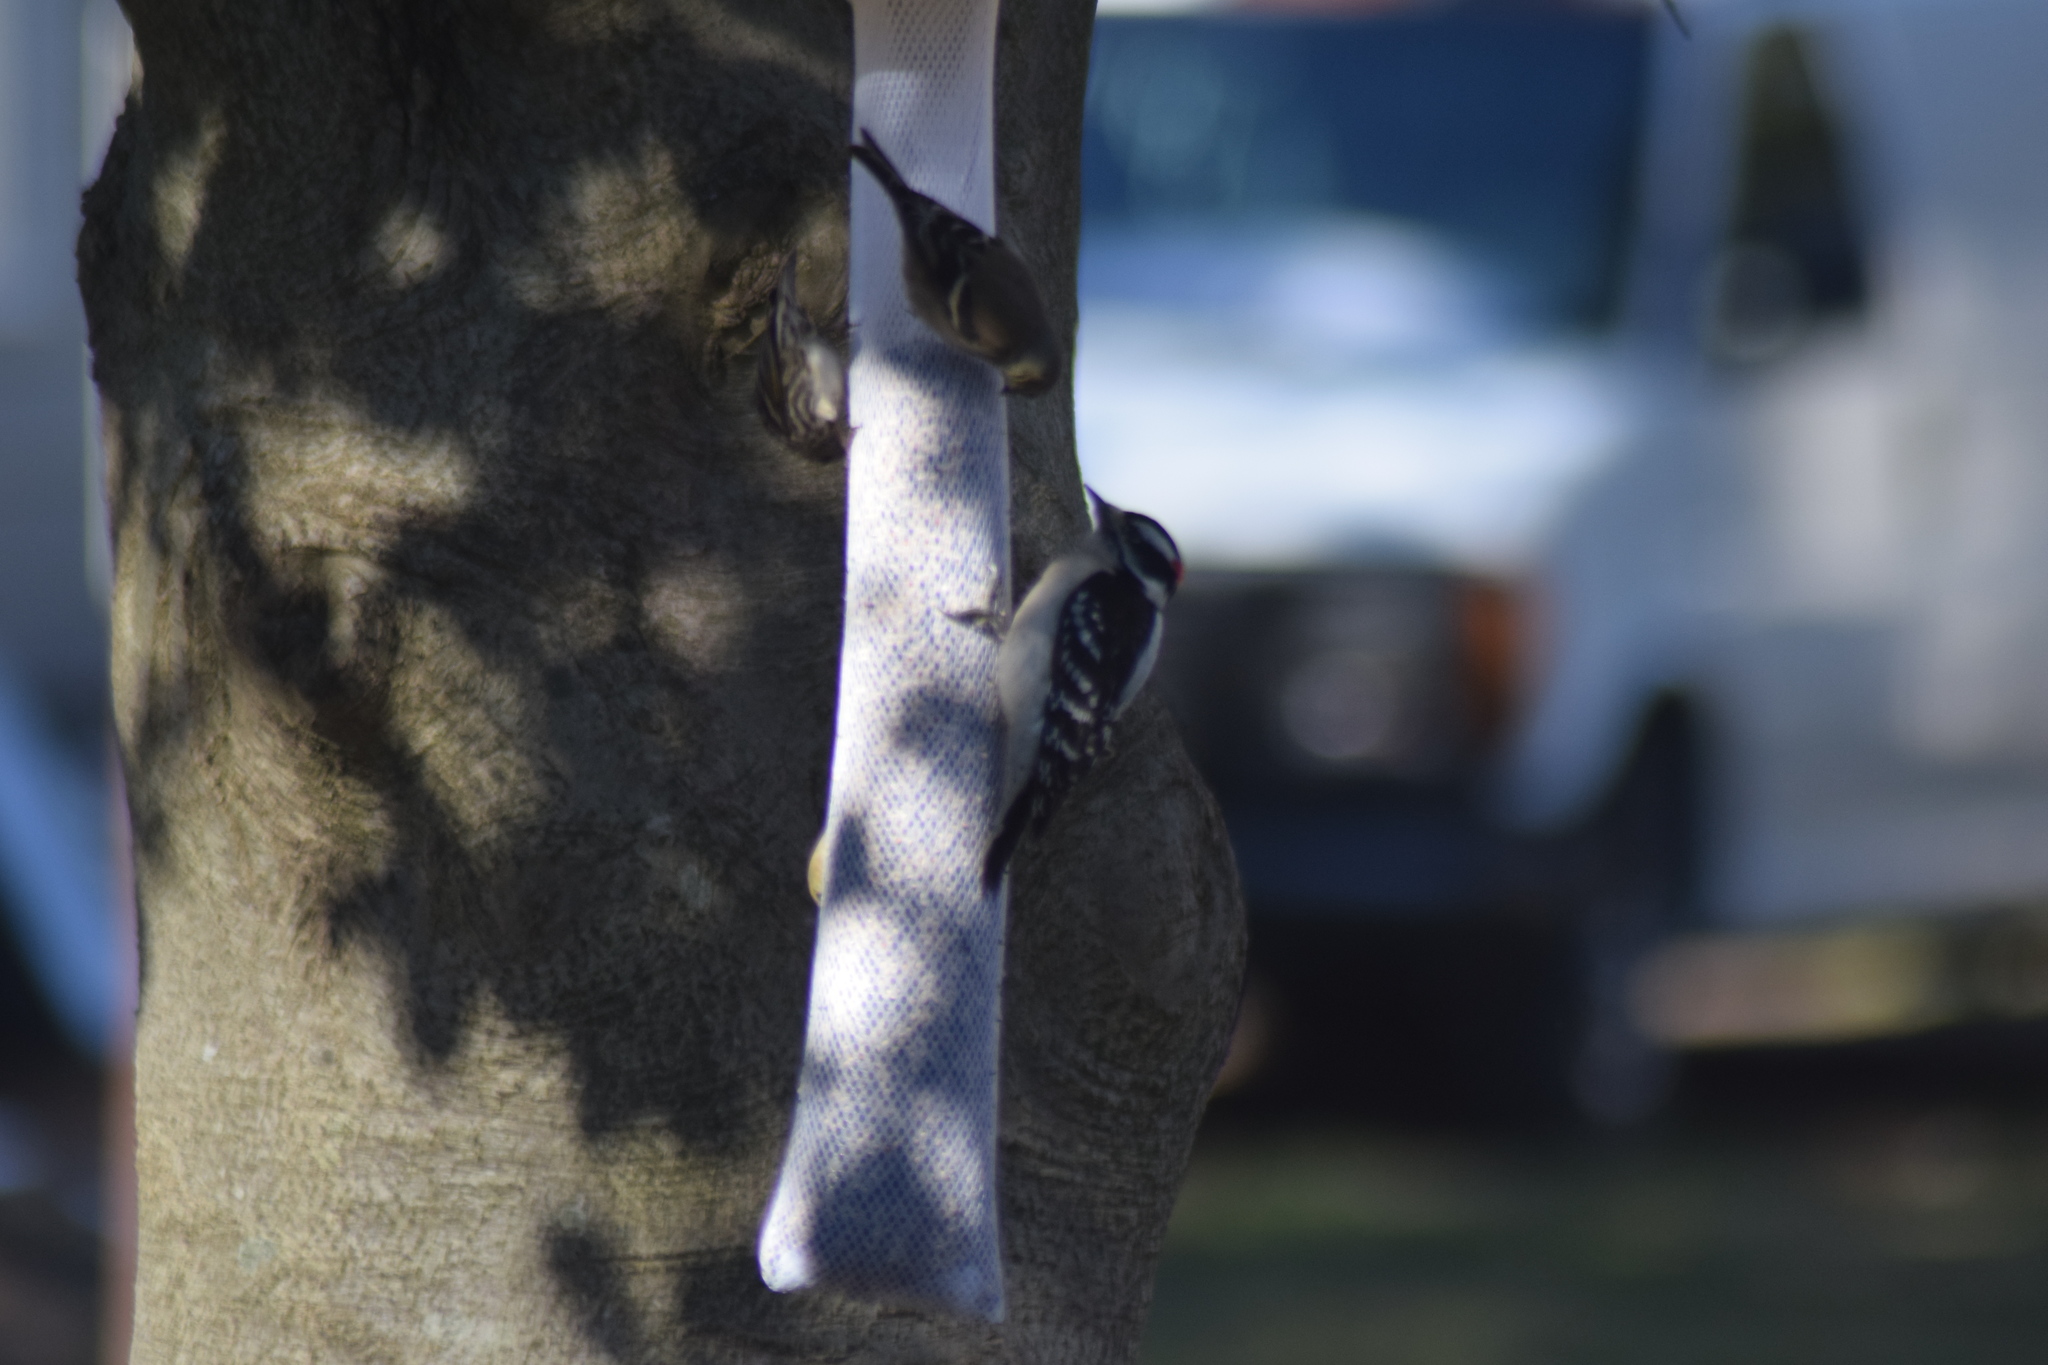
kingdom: Animalia
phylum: Chordata
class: Aves
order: Piciformes
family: Picidae
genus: Dryobates
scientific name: Dryobates pubescens
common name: Downy woodpecker
